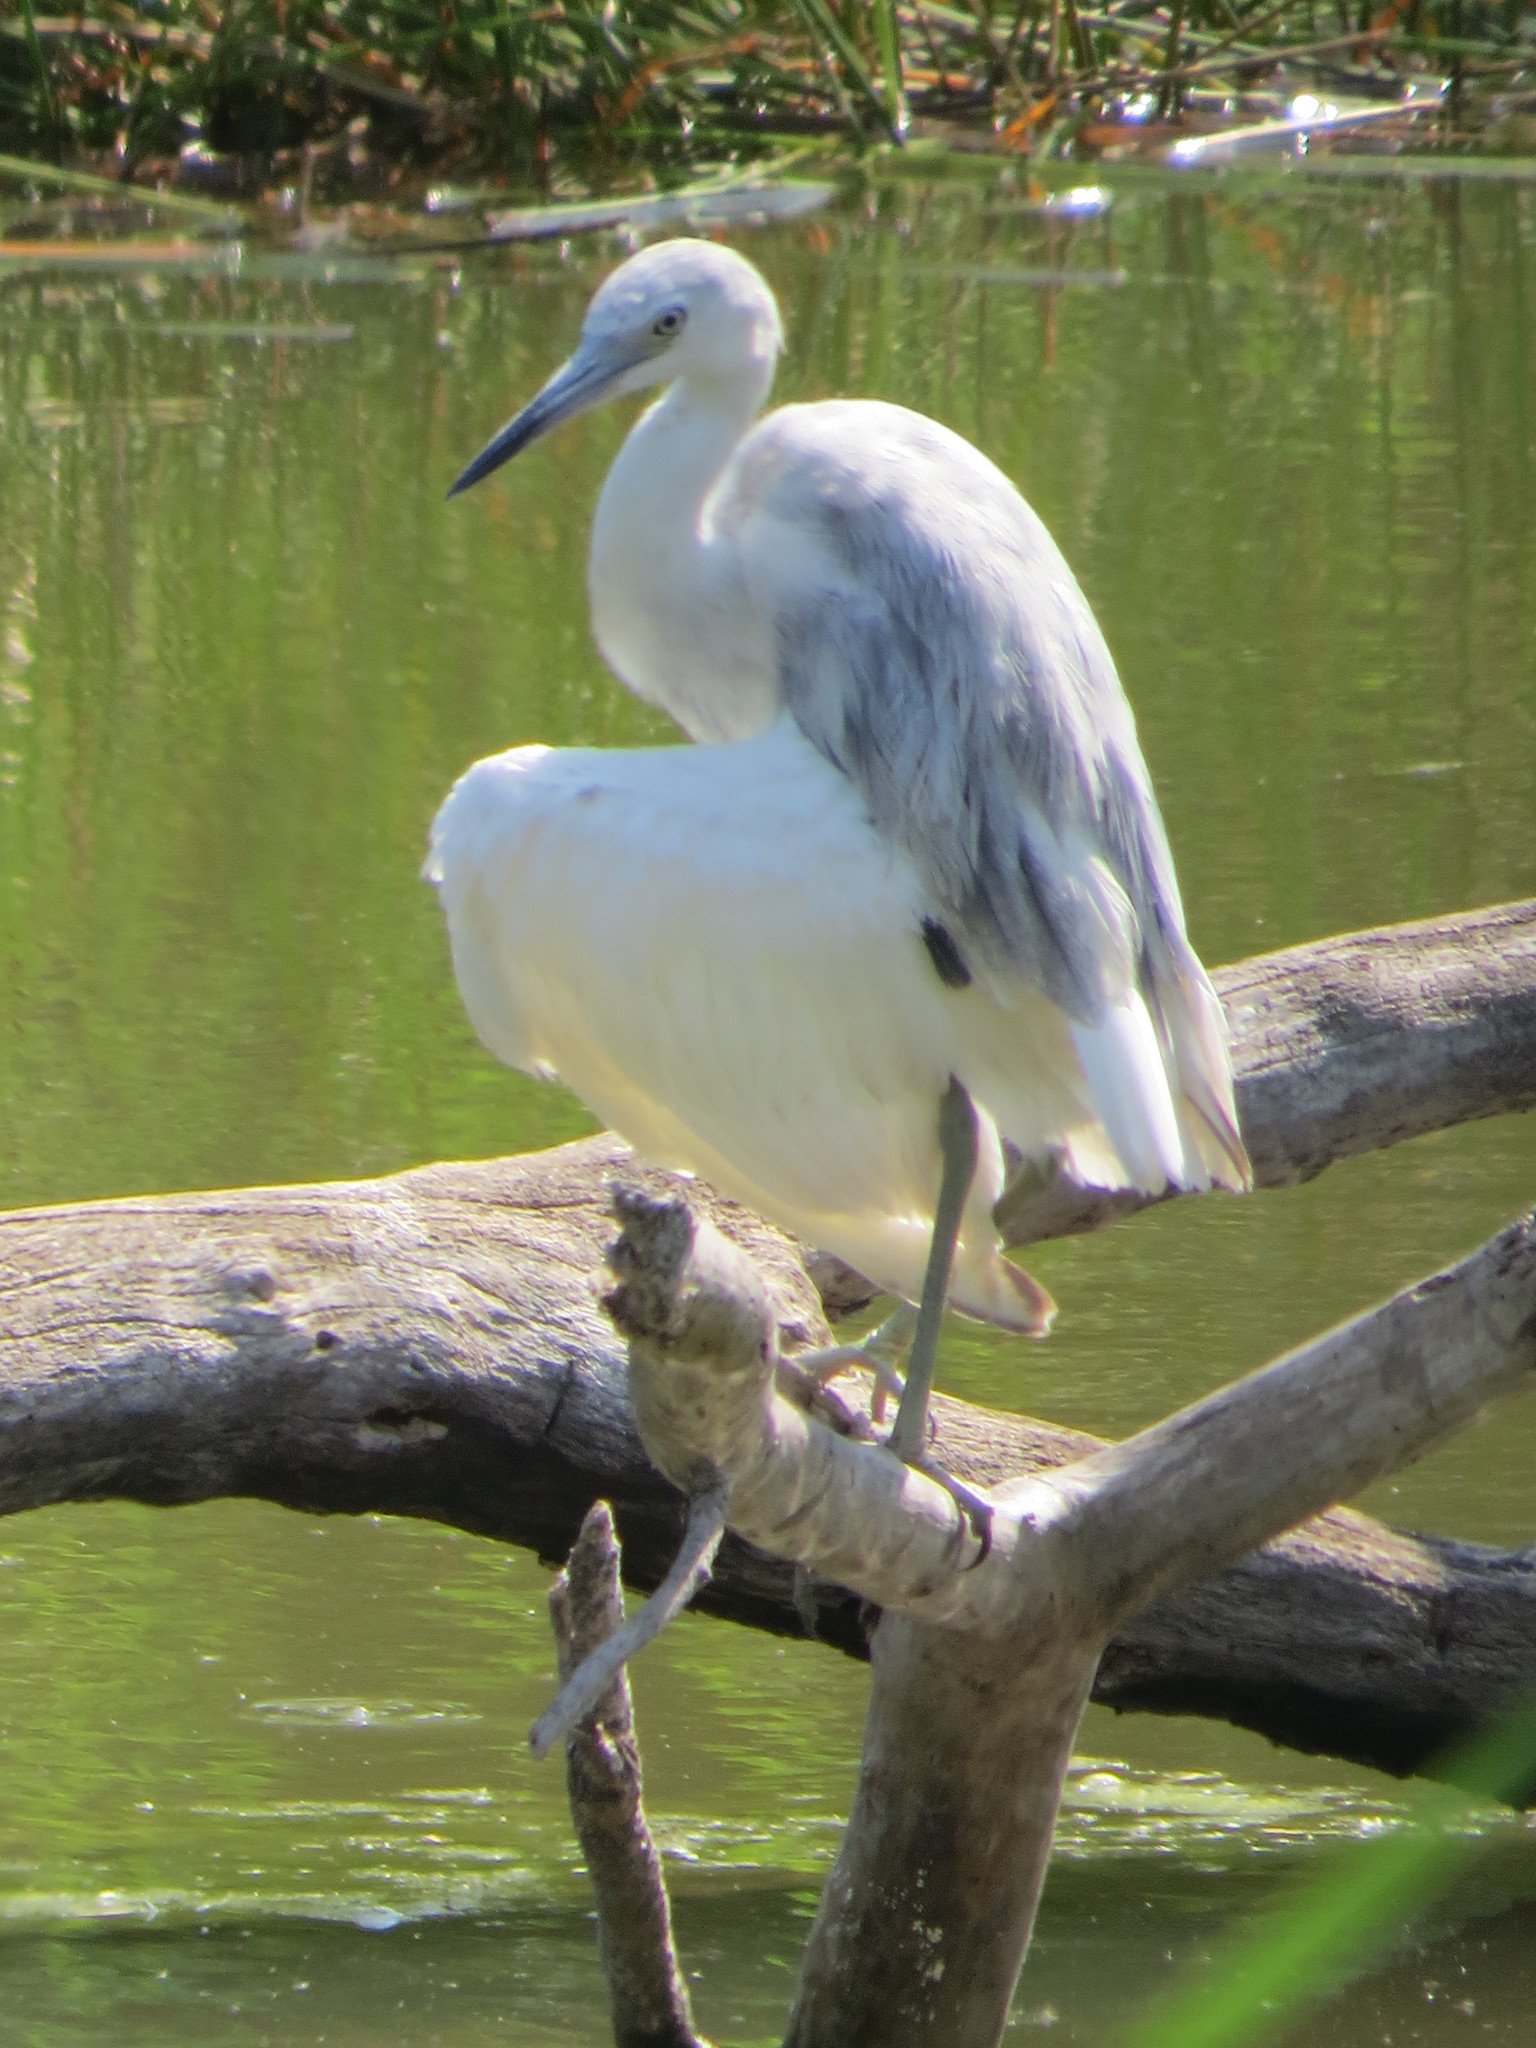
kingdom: Animalia
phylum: Chordata
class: Aves
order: Pelecaniformes
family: Ardeidae
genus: Egretta
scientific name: Egretta caerulea
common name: Little blue heron
